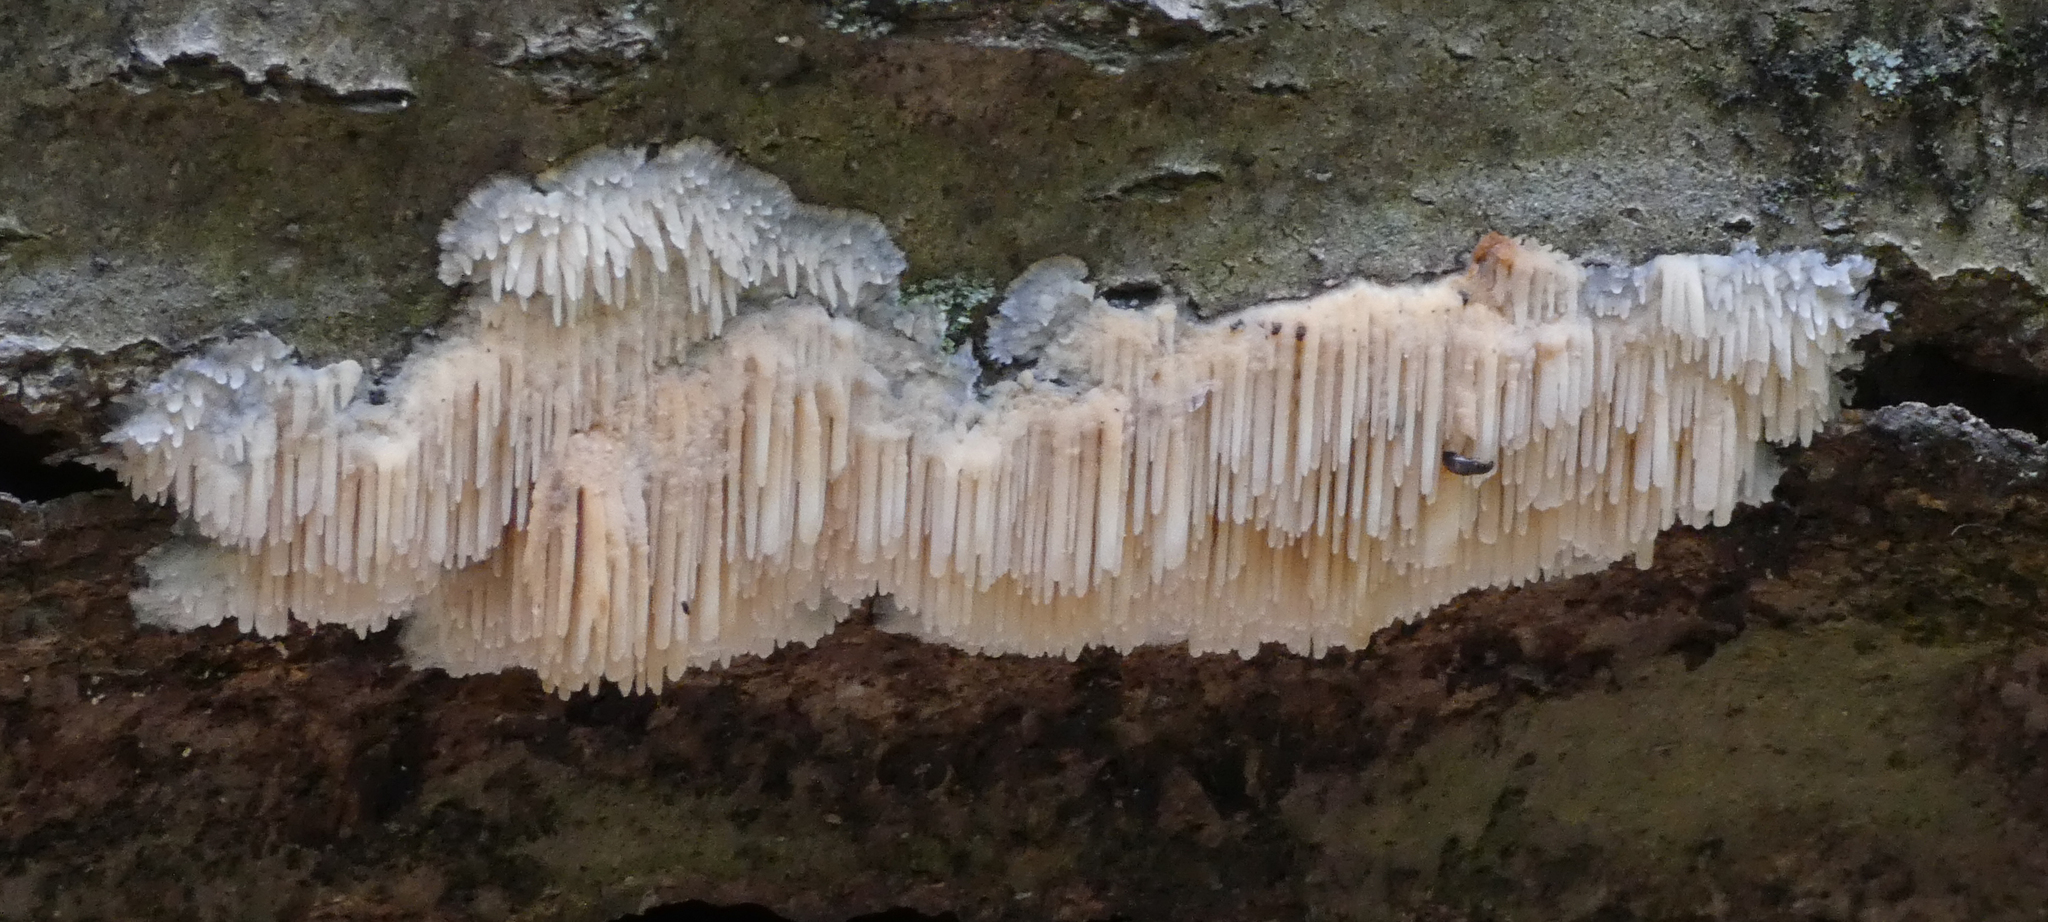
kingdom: Fungi
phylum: Basidiomycota
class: Agaricomycetes
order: Agaricales
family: Radulomycetaceae
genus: Radulomyces
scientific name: Radulomyces copelandii
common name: Asian beauty
